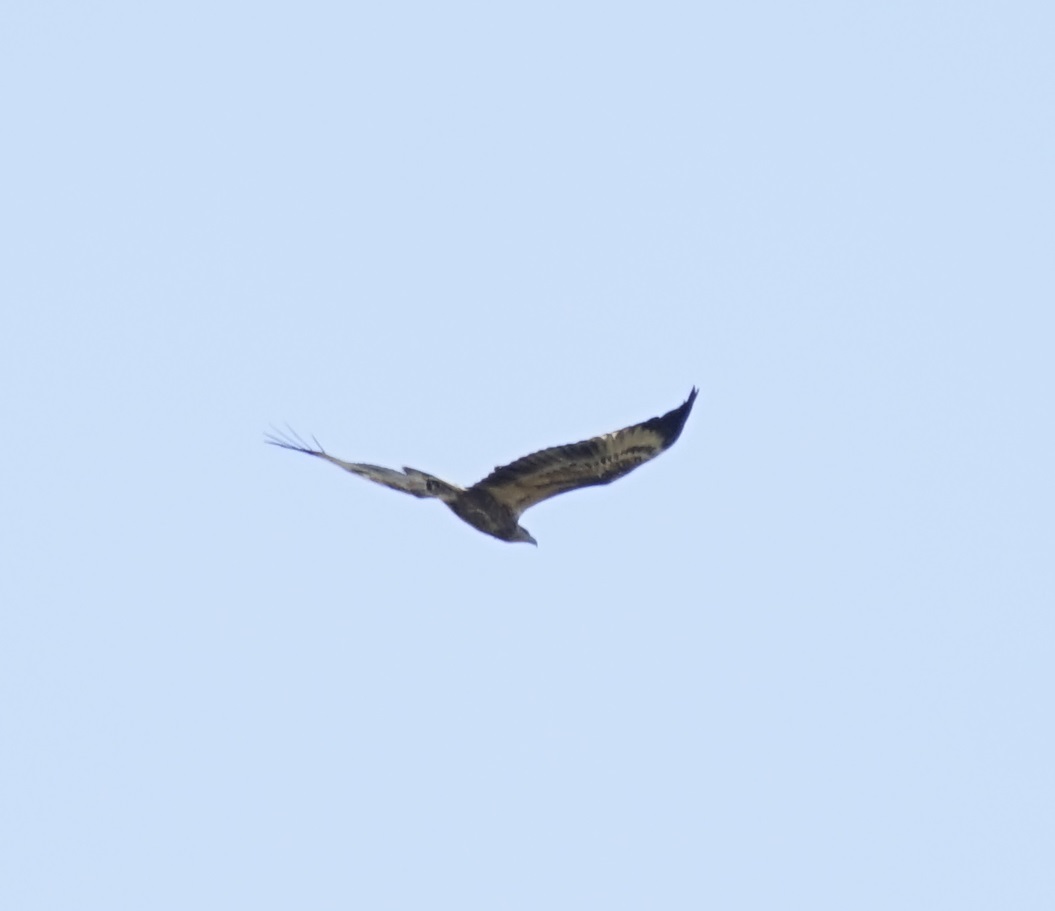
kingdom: Animalia
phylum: Chordata
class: Aves
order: Accipitriformes
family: Accipitridae
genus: Haliaeetus
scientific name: Haliaeetus leucogaster
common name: White-bellied sea eagle
